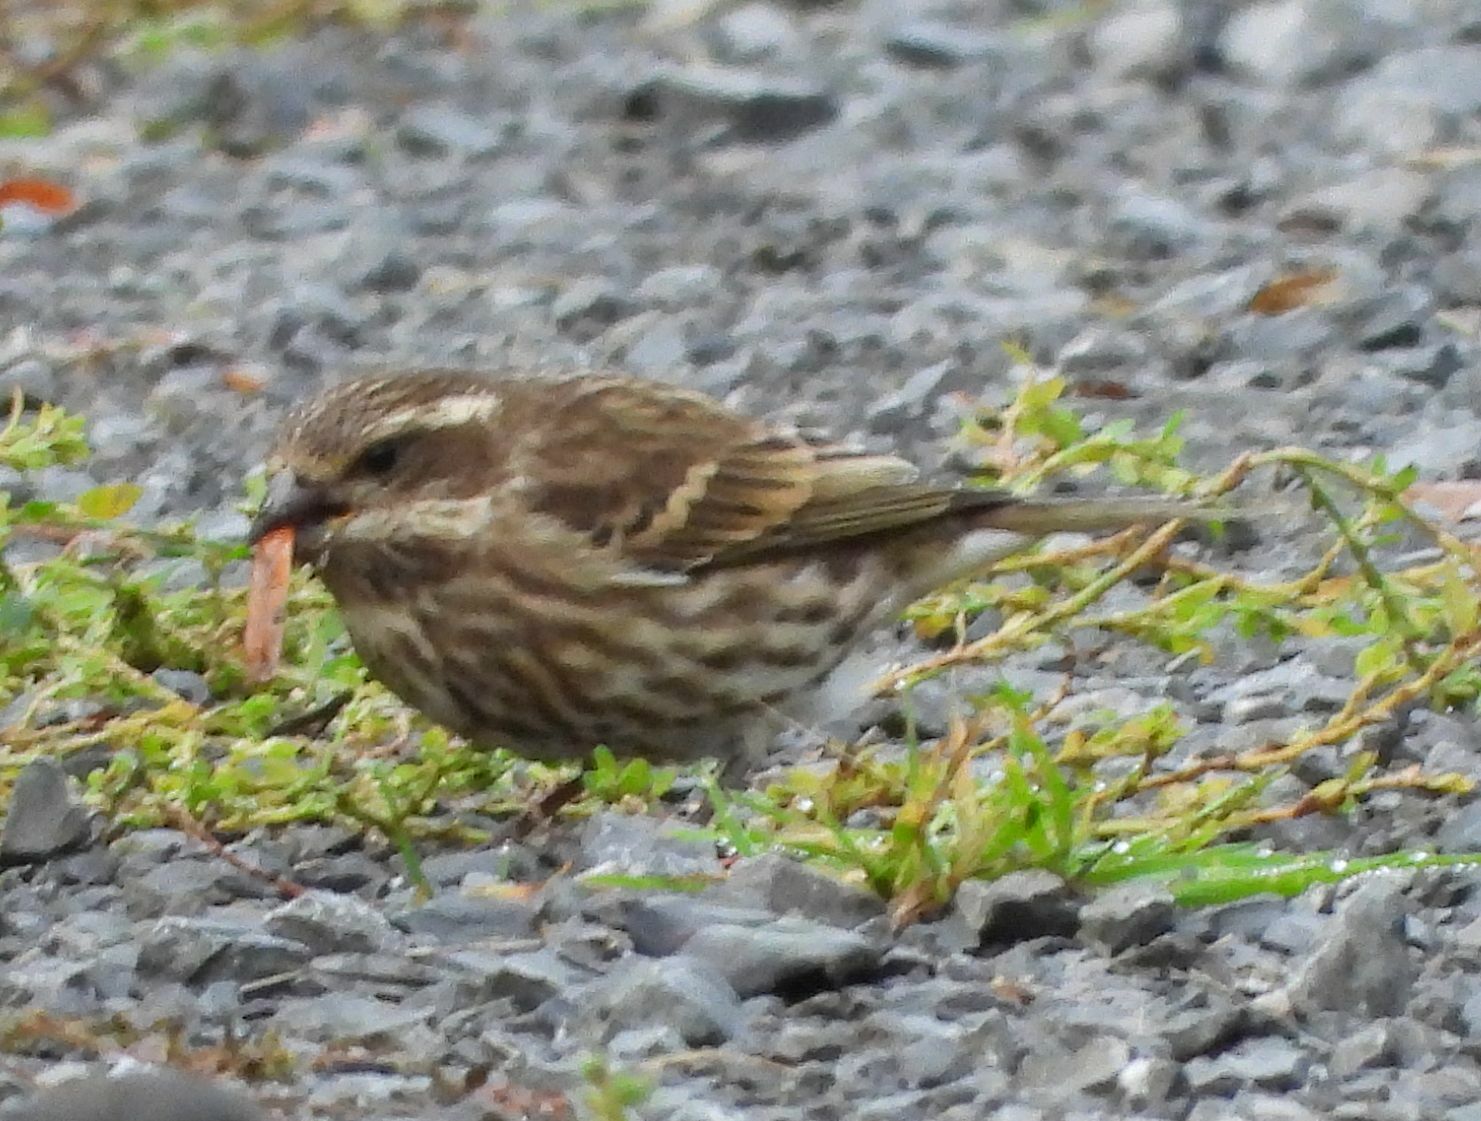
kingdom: Animalia
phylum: Chordata
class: Aves
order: Passeriformes
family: Fringillidae
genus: Haemorhous
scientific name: Haemorhous purpureus
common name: Purple finch
